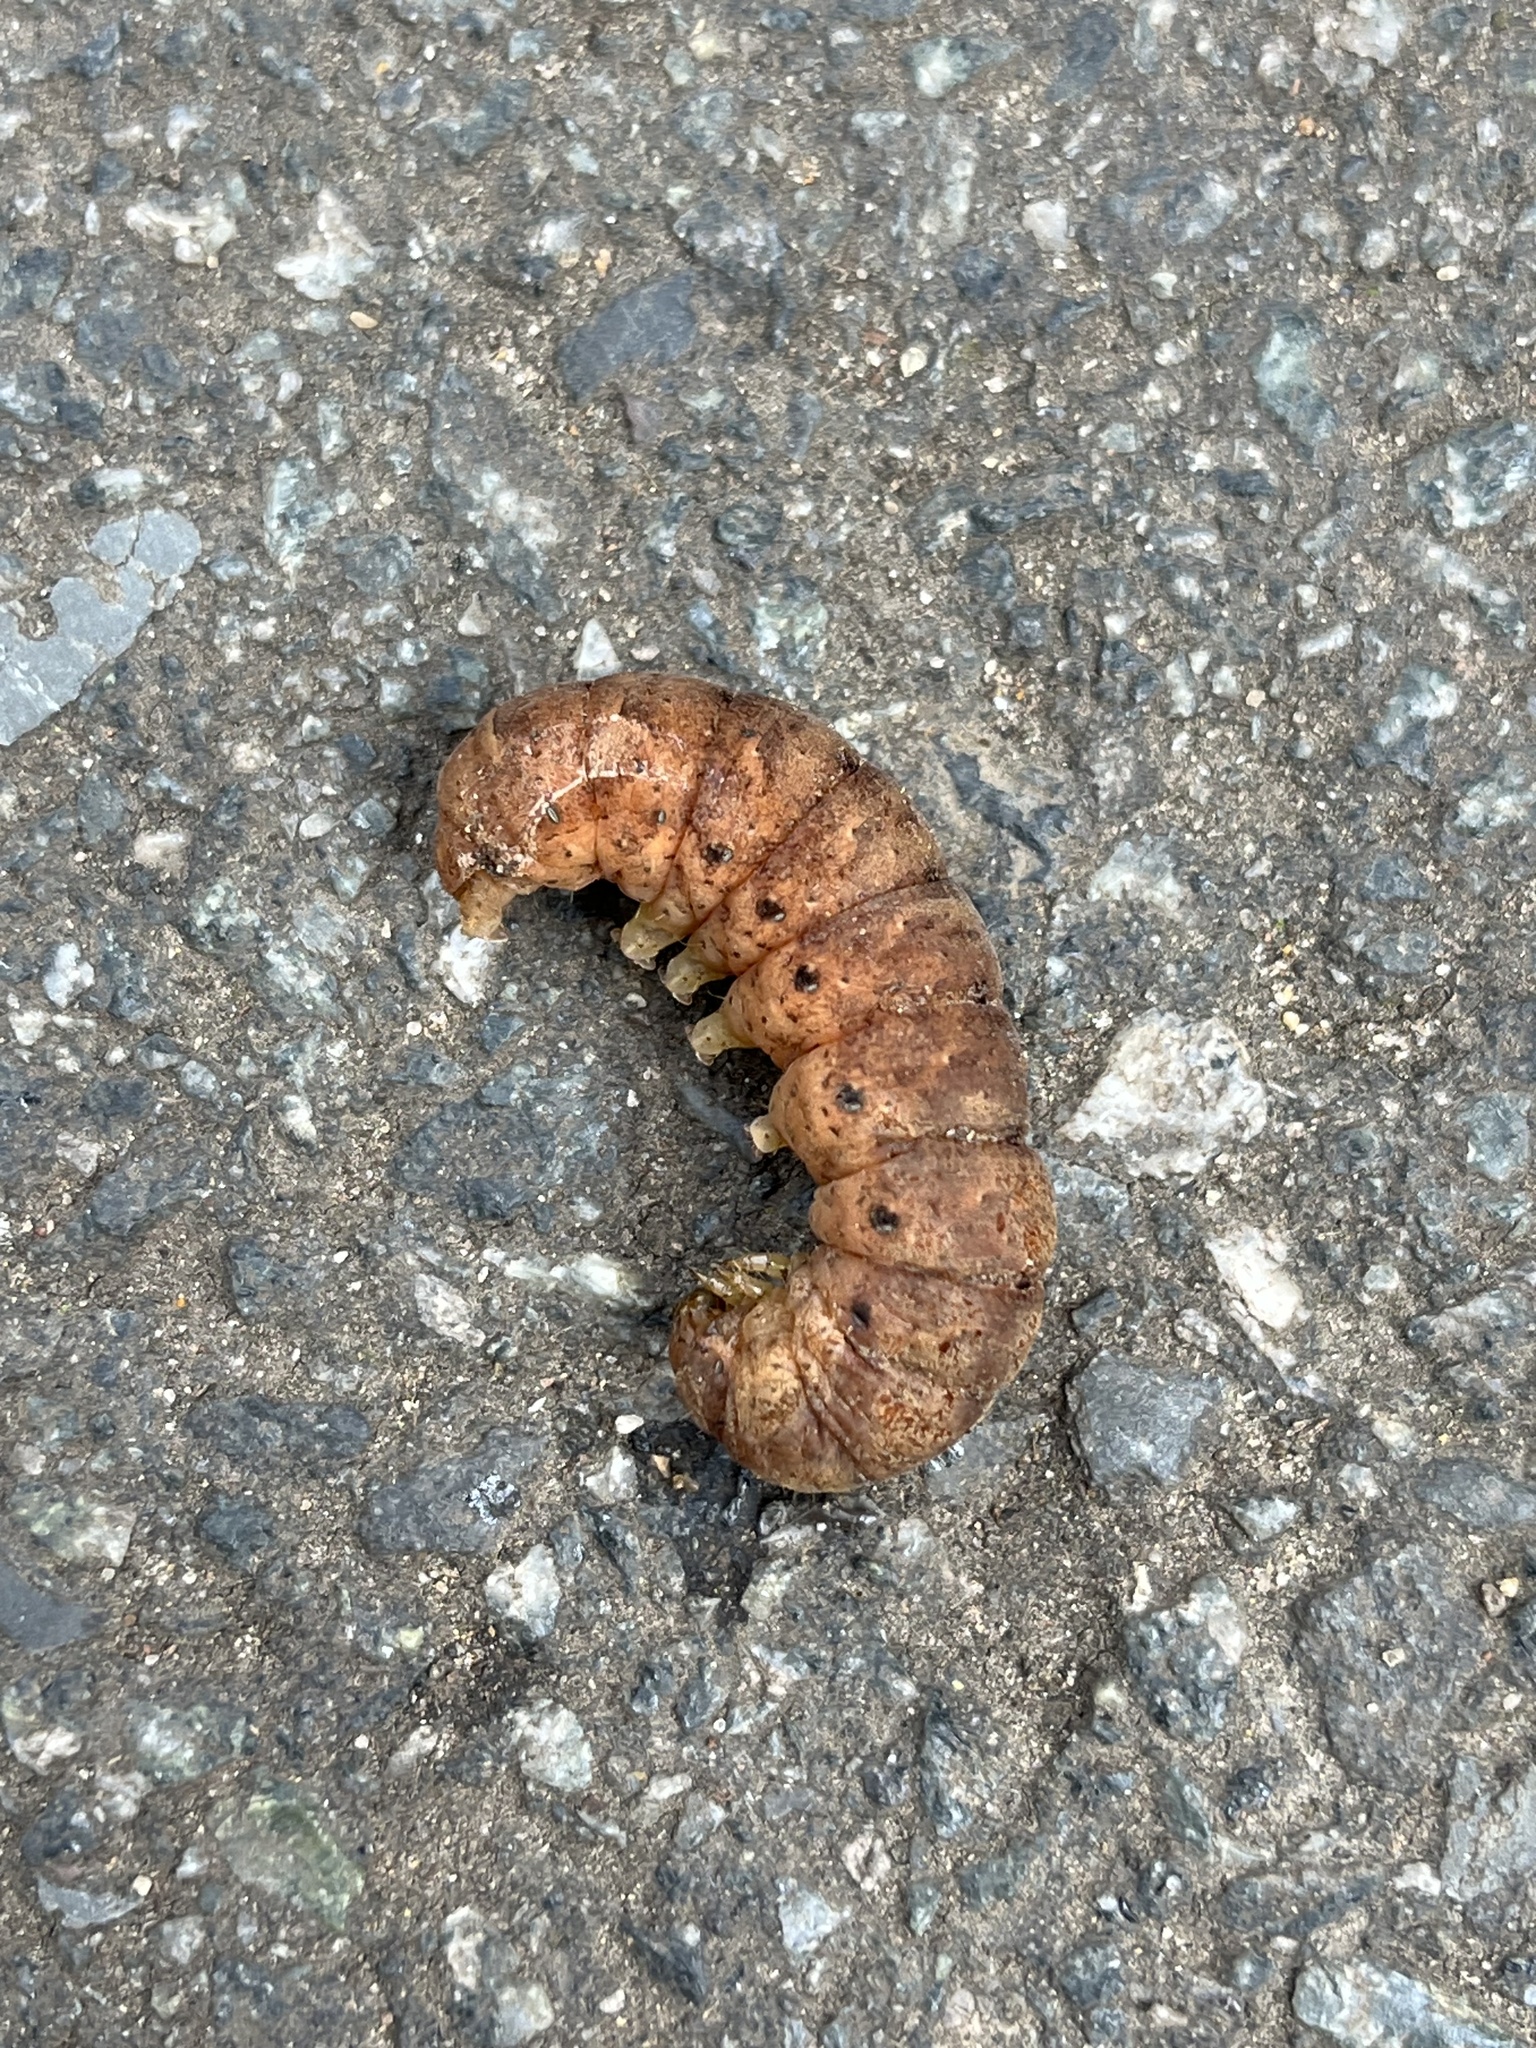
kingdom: Animalia
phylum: Arthropoda
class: Insecta
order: Lepidoptera
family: Noctuidae
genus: Noctua
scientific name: Noctua fimbriata
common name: Broad-bordered yellow underwing
